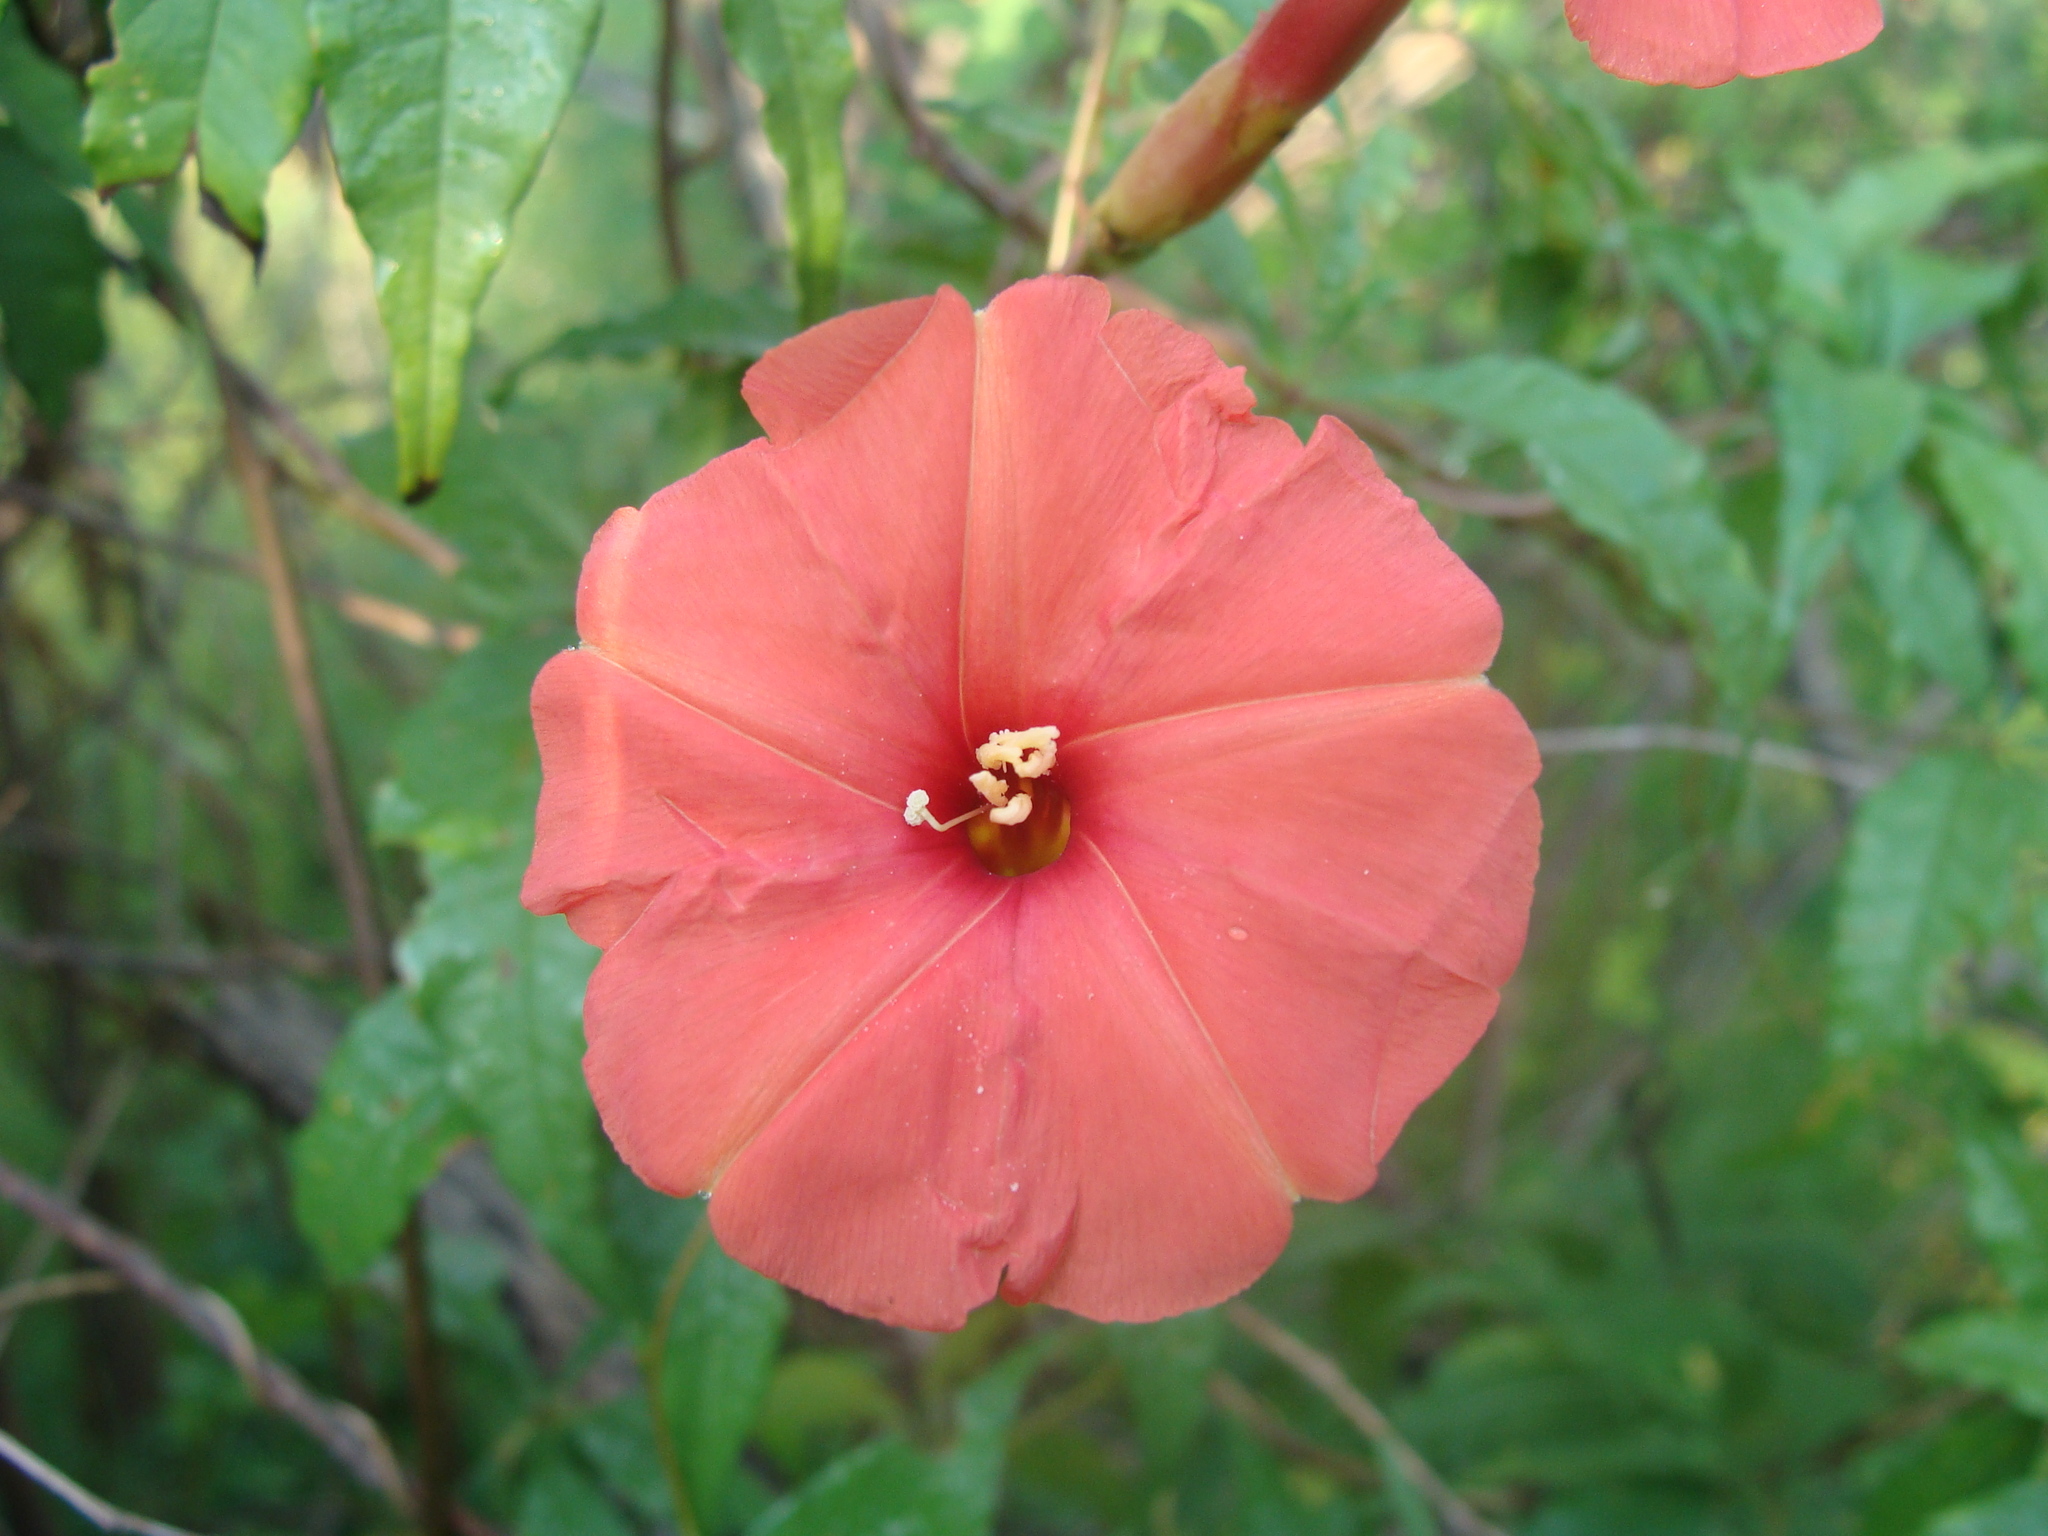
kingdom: Plantae
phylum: Tracheophyta
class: Magnoliopsida
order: Solanales
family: Convolvulaceae
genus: Operculina
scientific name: Operculina pteripes
